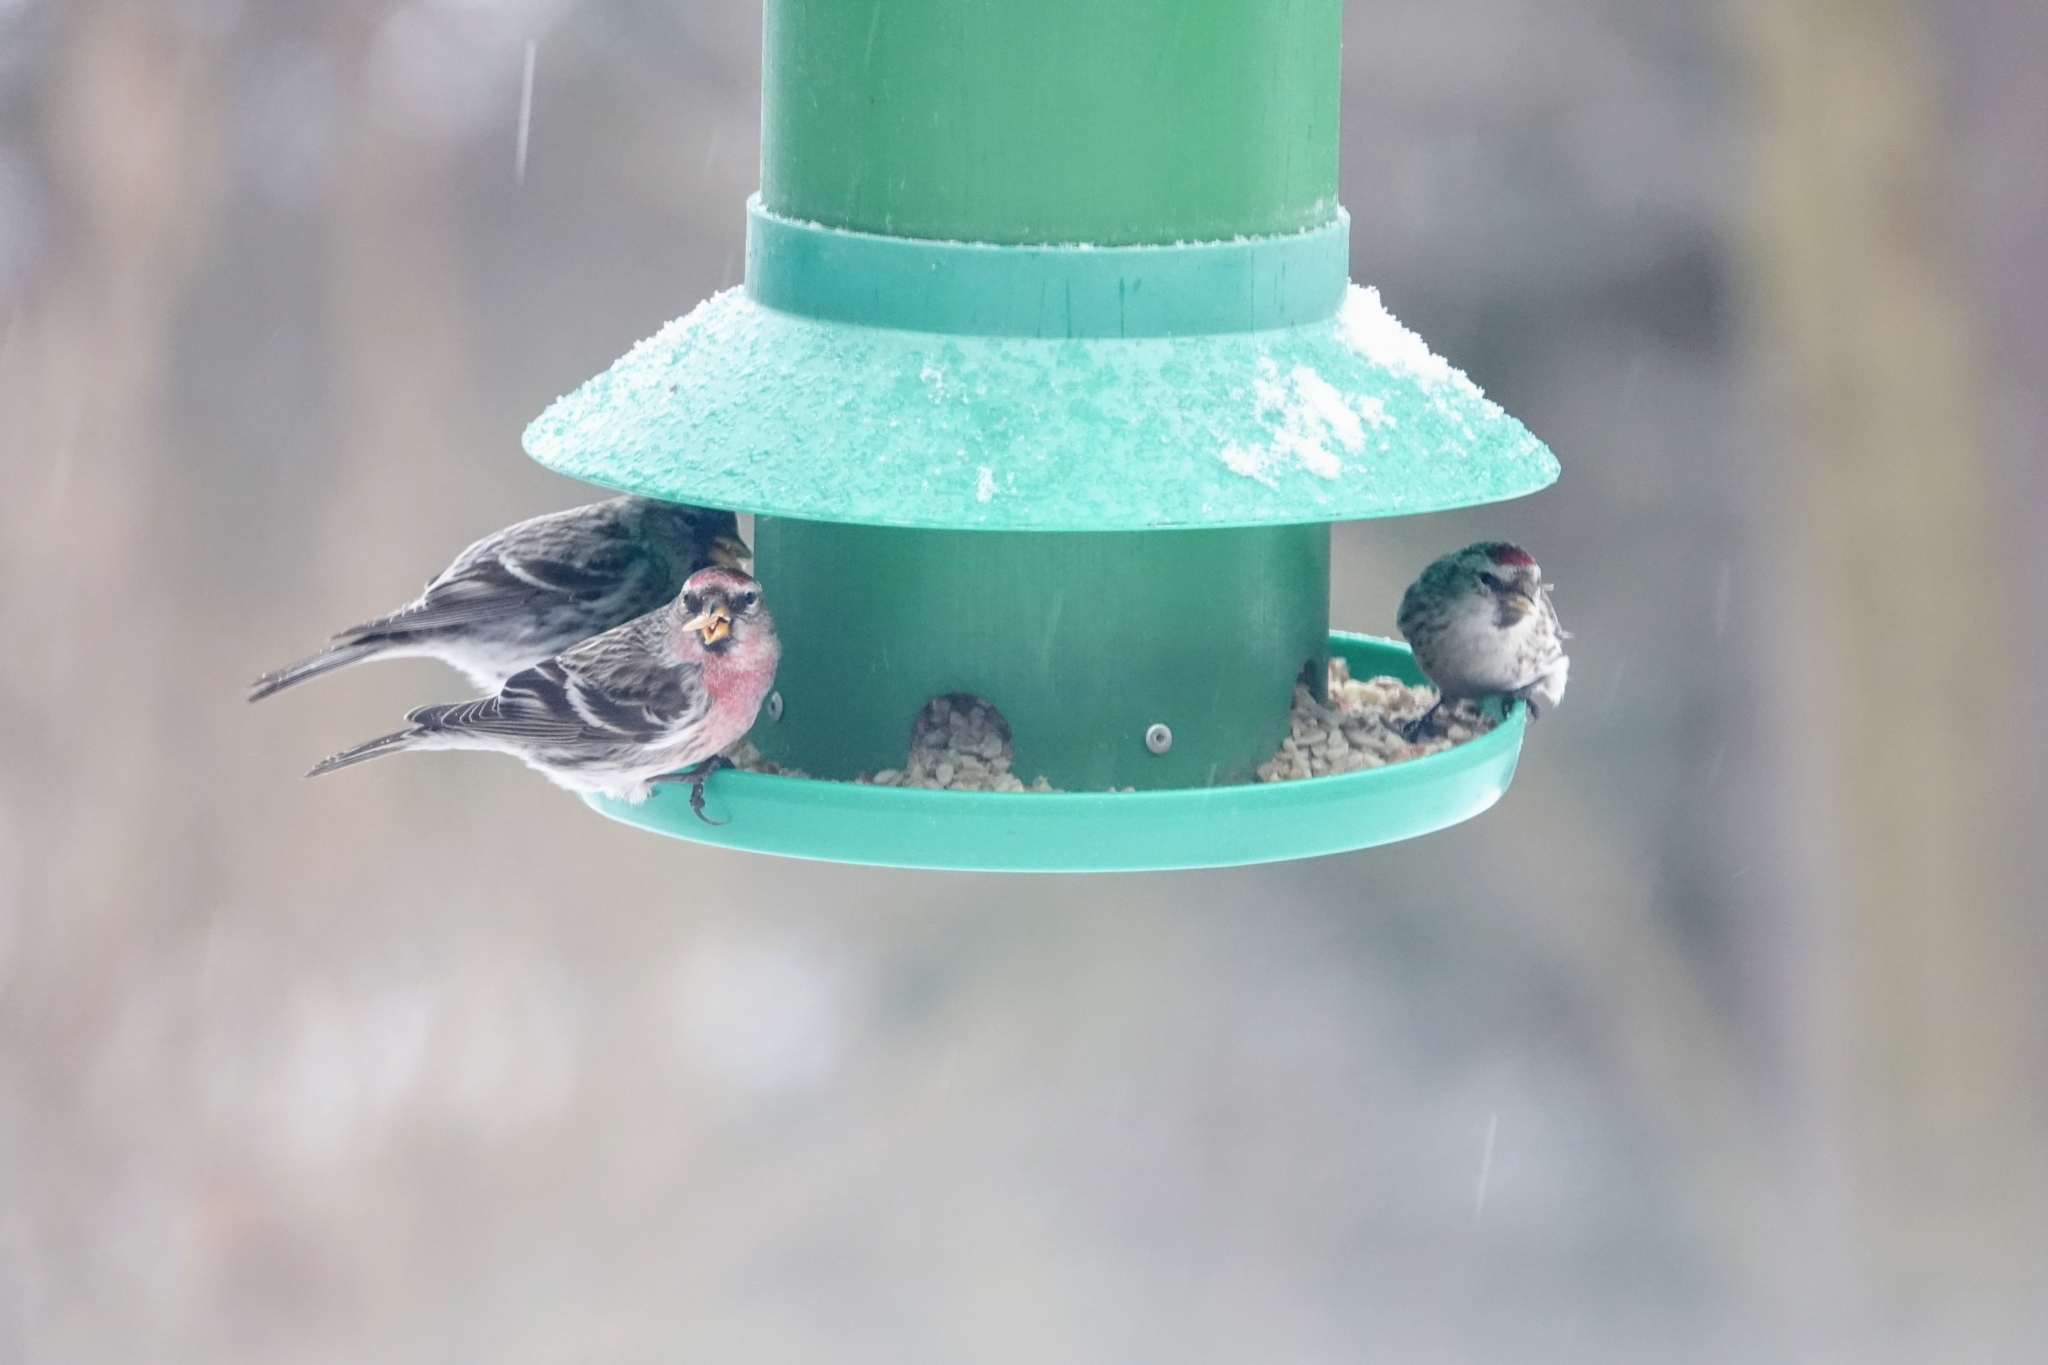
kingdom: Animalia
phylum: Chordata
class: Aves
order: Passeriformes
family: Fringillidae
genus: Acanthis
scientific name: Acanthis flammea
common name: Common redpoll
